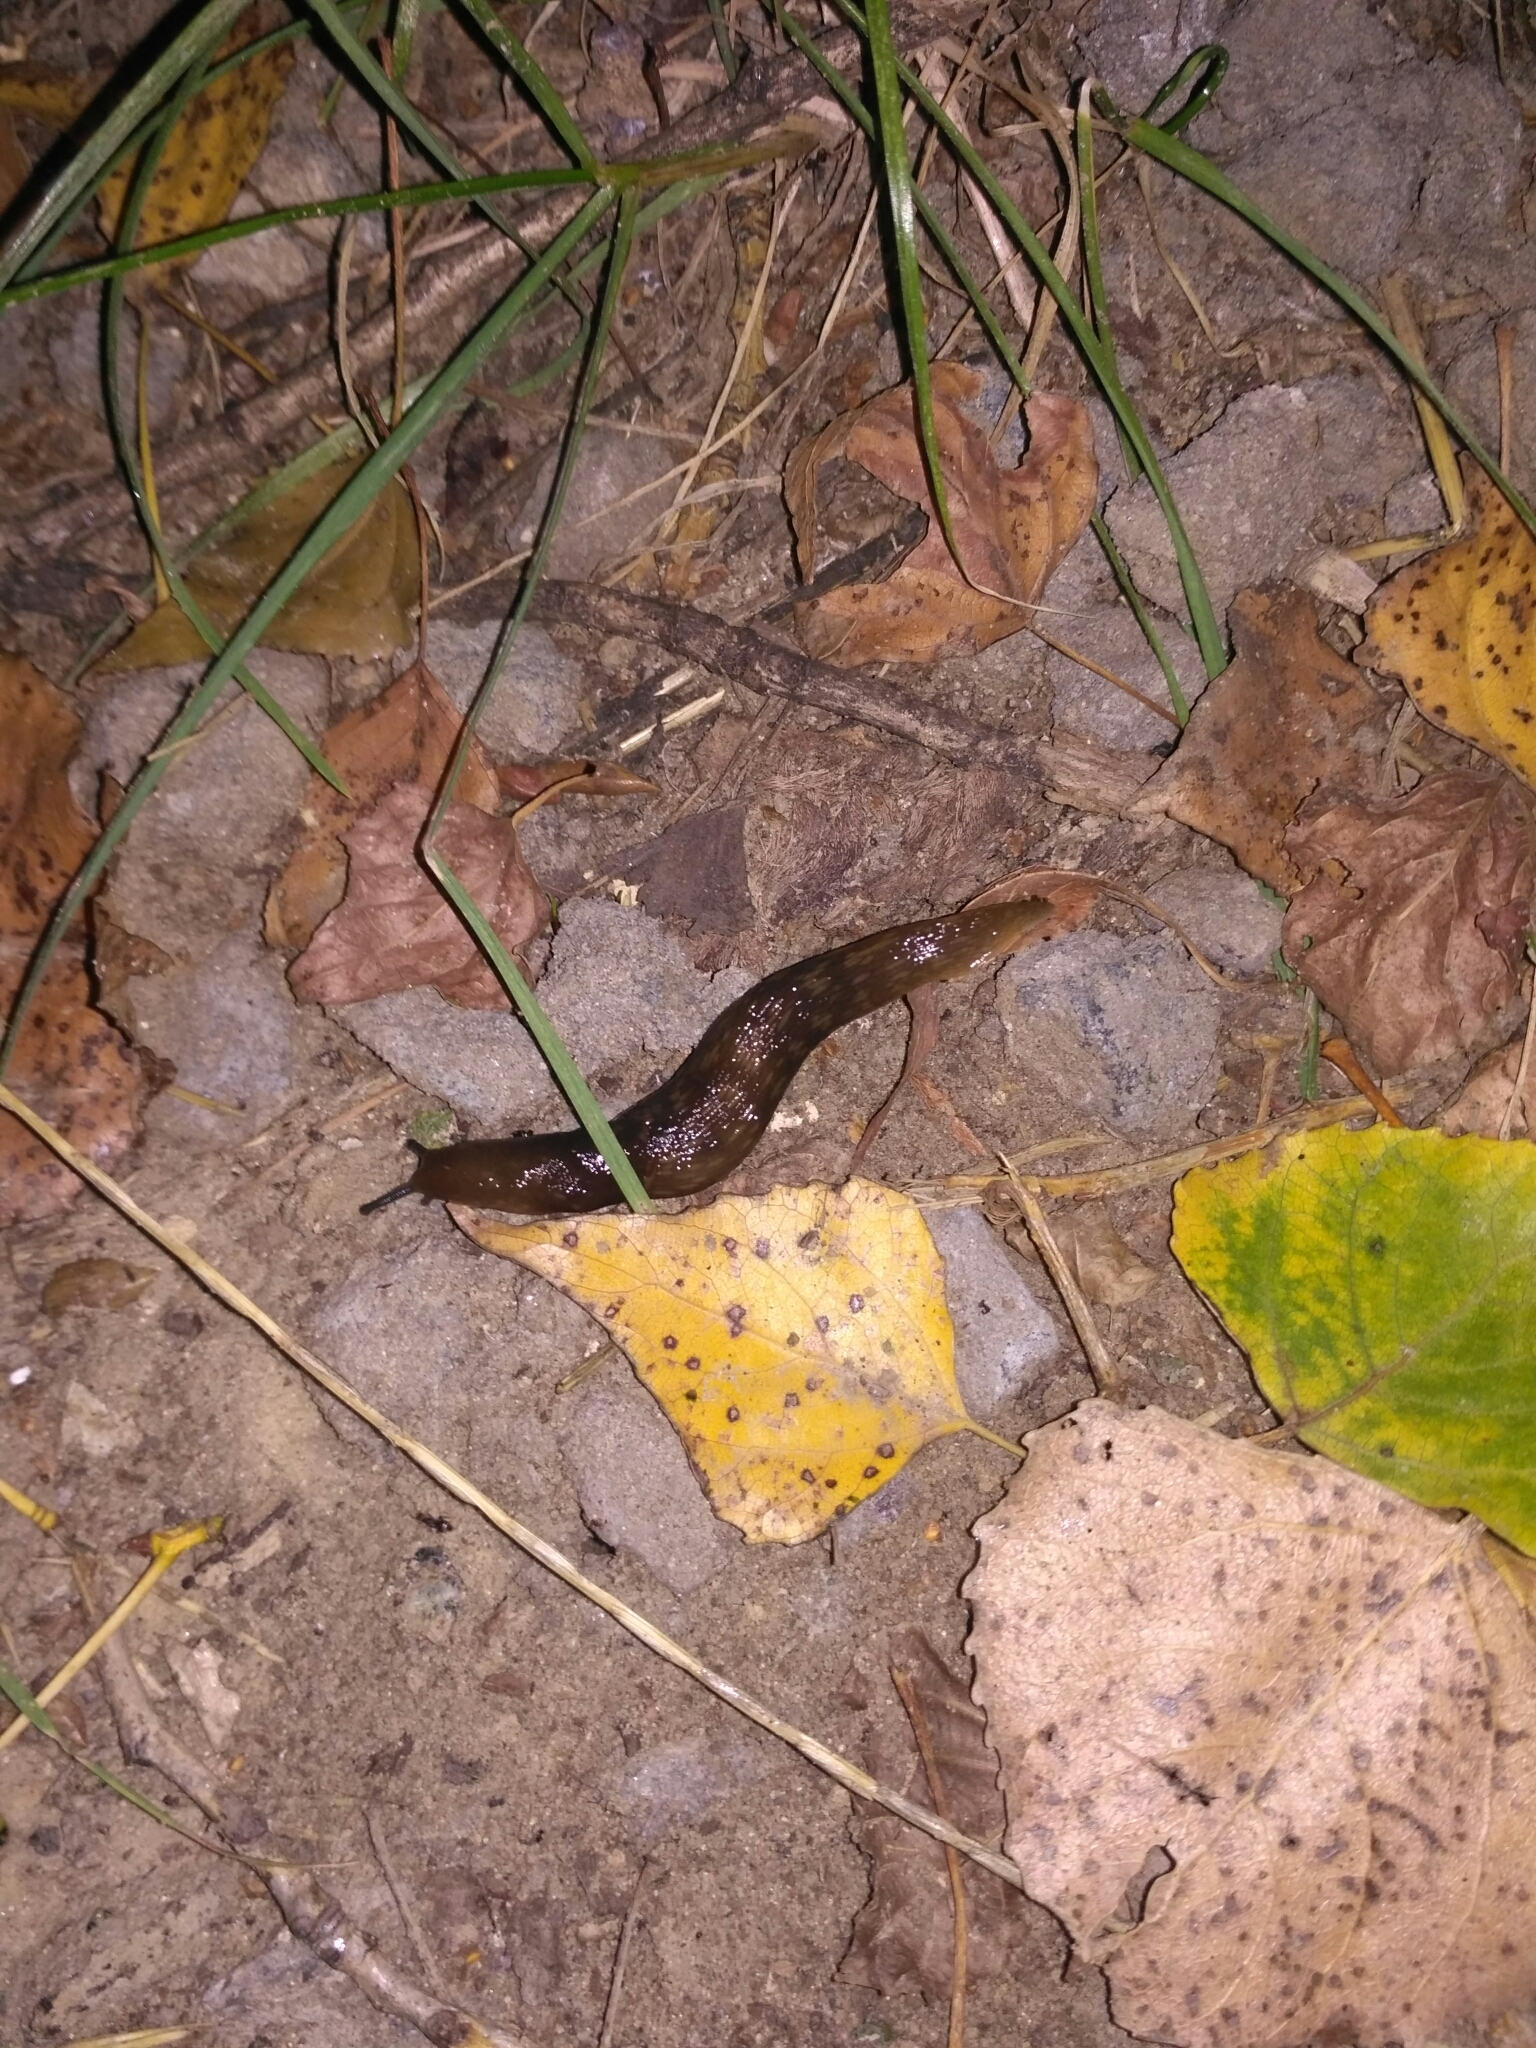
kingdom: Animalia
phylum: Mollusca
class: Gastropoda
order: Stylommatophora
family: Limacidae
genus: Limacus
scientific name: Limacus flavus
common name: Yellow gardenslug
